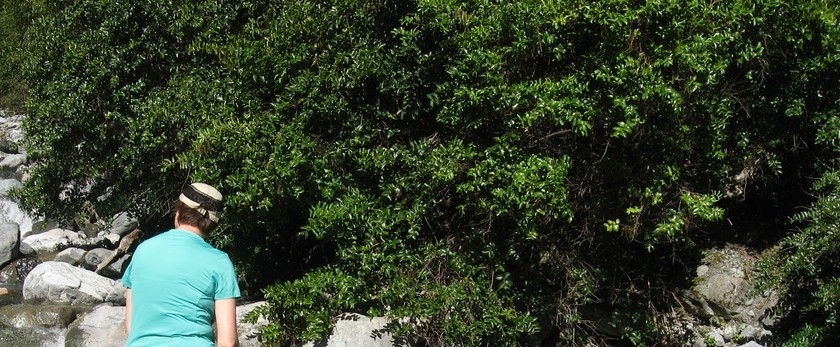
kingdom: Plantae
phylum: Tracheophyta
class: Magnoliopsida
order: Cucurbitales
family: Coriariaceae
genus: Coriaria
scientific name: Coriaria arborea
